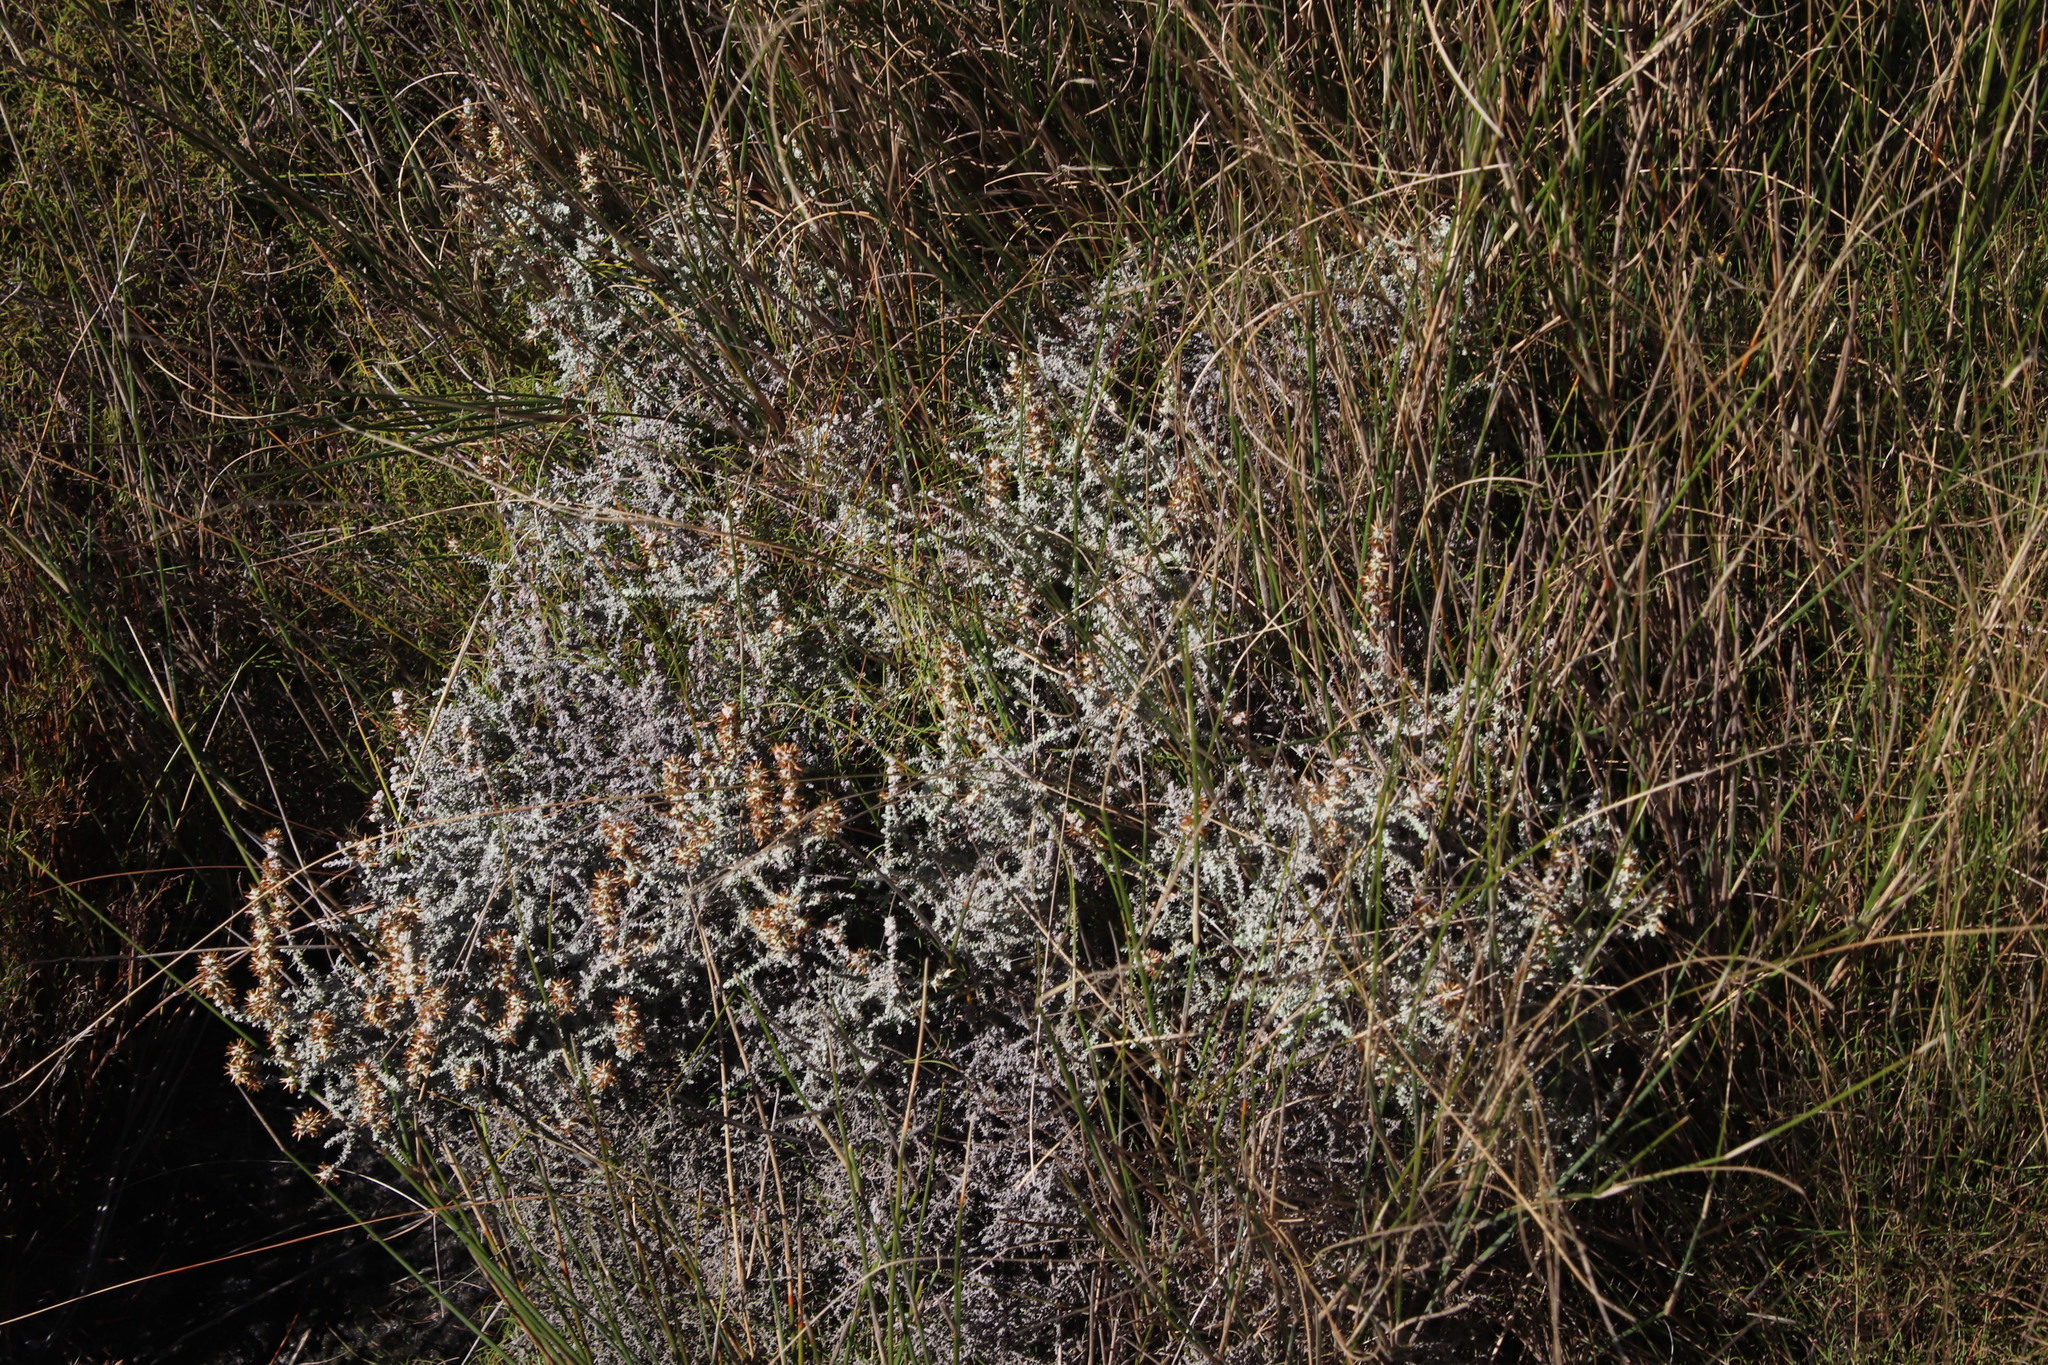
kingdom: Plantae
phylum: Tracheophyta
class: Magnoliopsida
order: Asterales
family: Asteraceae
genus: Seriphium
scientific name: Seriphium cinereum
